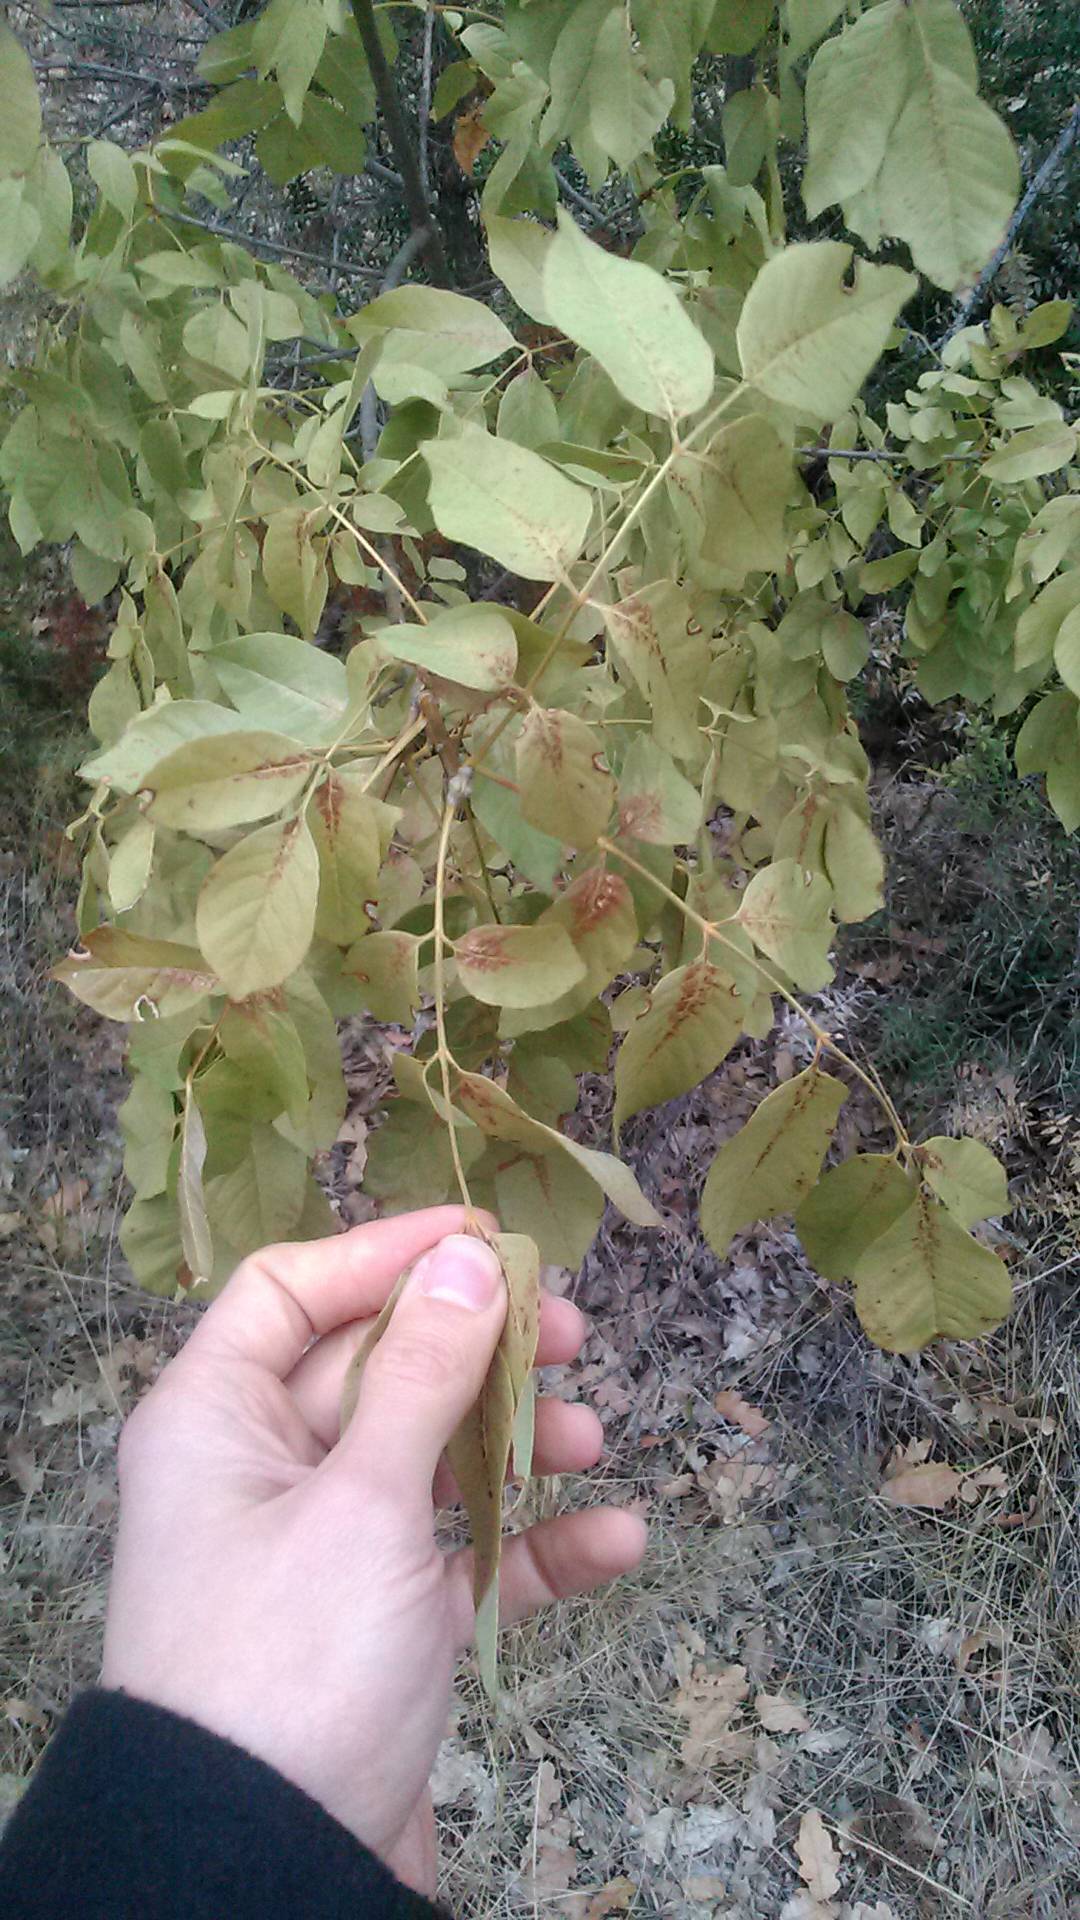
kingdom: Plantae
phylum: Tracheophyta
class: Magnoliopsida
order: Lamiales
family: Oleaceae
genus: Fraxinus
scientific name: Fraxinus ornus
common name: Manna ash
